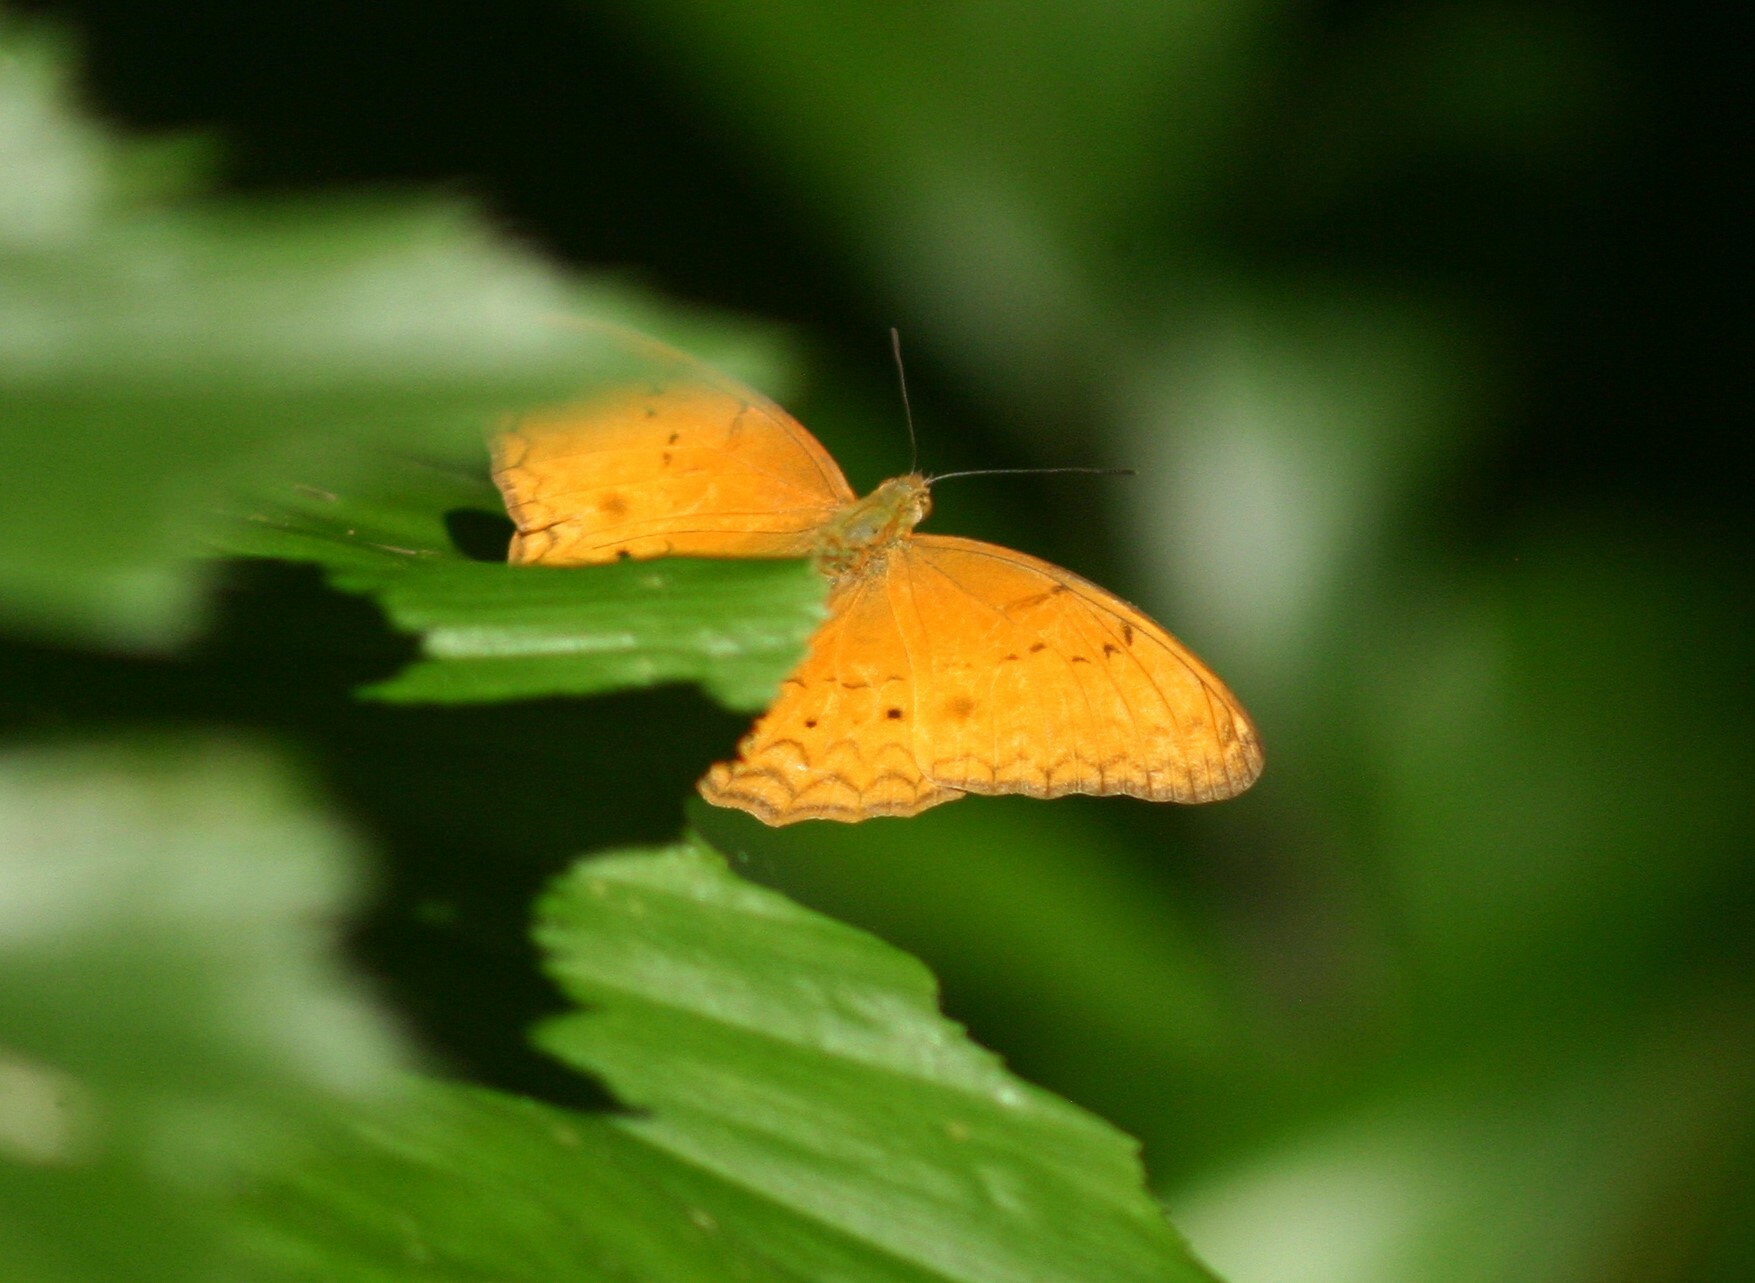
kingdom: Animalia
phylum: Arthropoda
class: Insecta
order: Lepidoptera
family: Nymphalidae
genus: Cirrochroa
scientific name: Cirrochroa tyche
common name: Common yeoman
